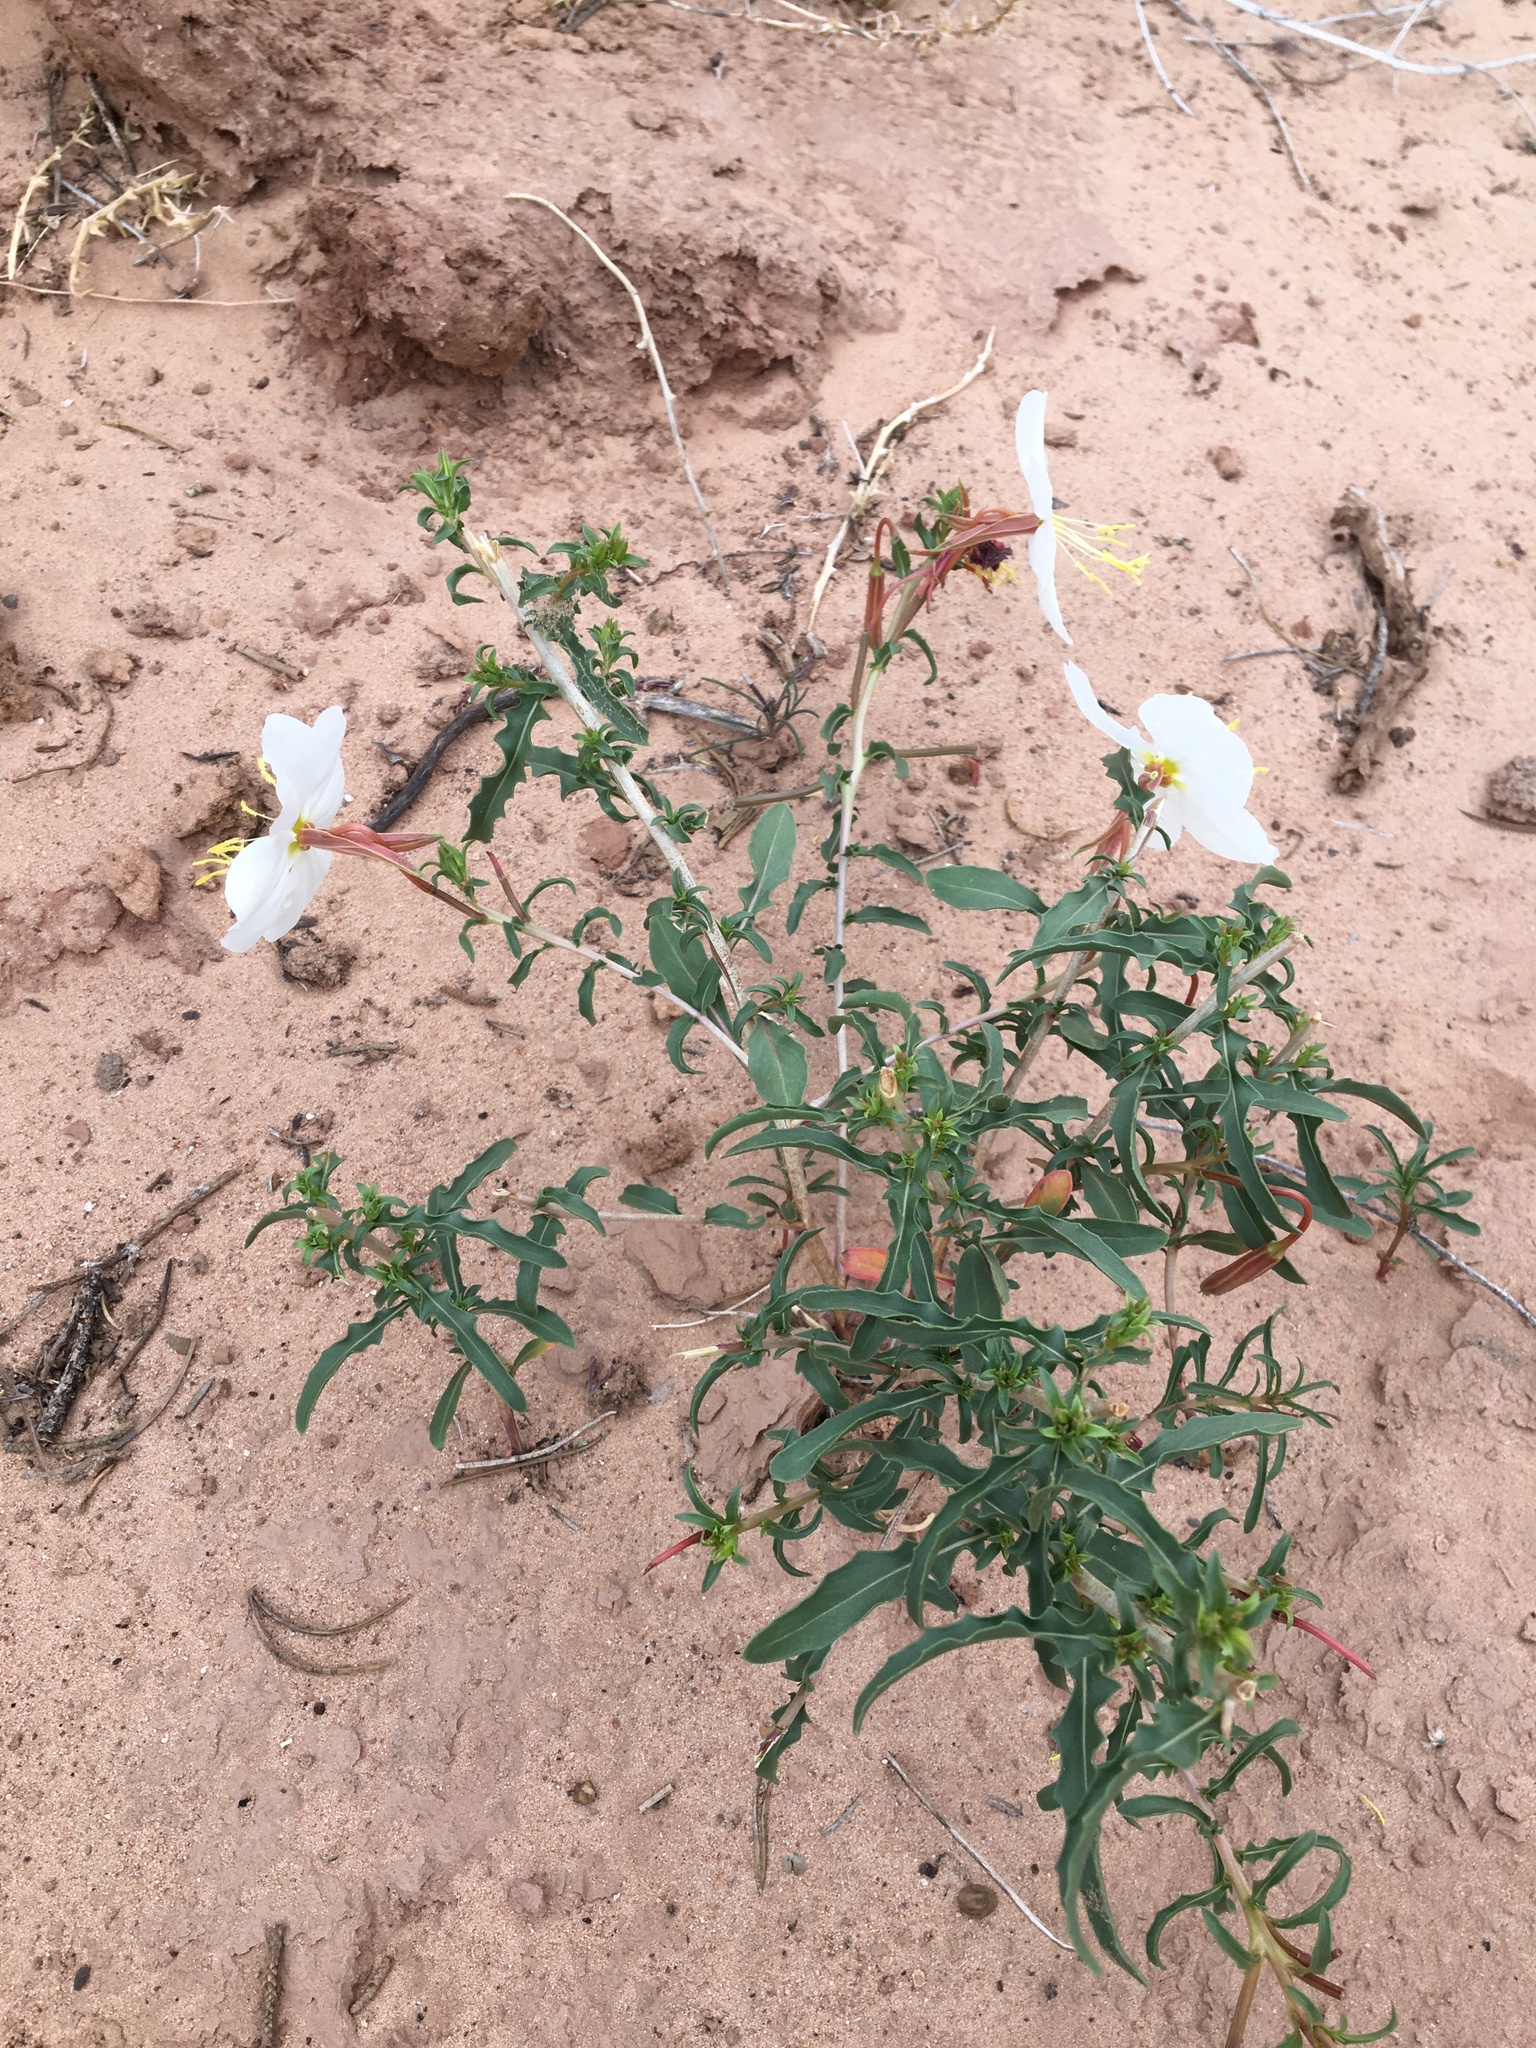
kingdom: Plantae
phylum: Tracheophyta
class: Magnoliopsida
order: Myrtales
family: Onagraceae
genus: Oenothera
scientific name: Oenothera pallida
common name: Pale evening-primrose
